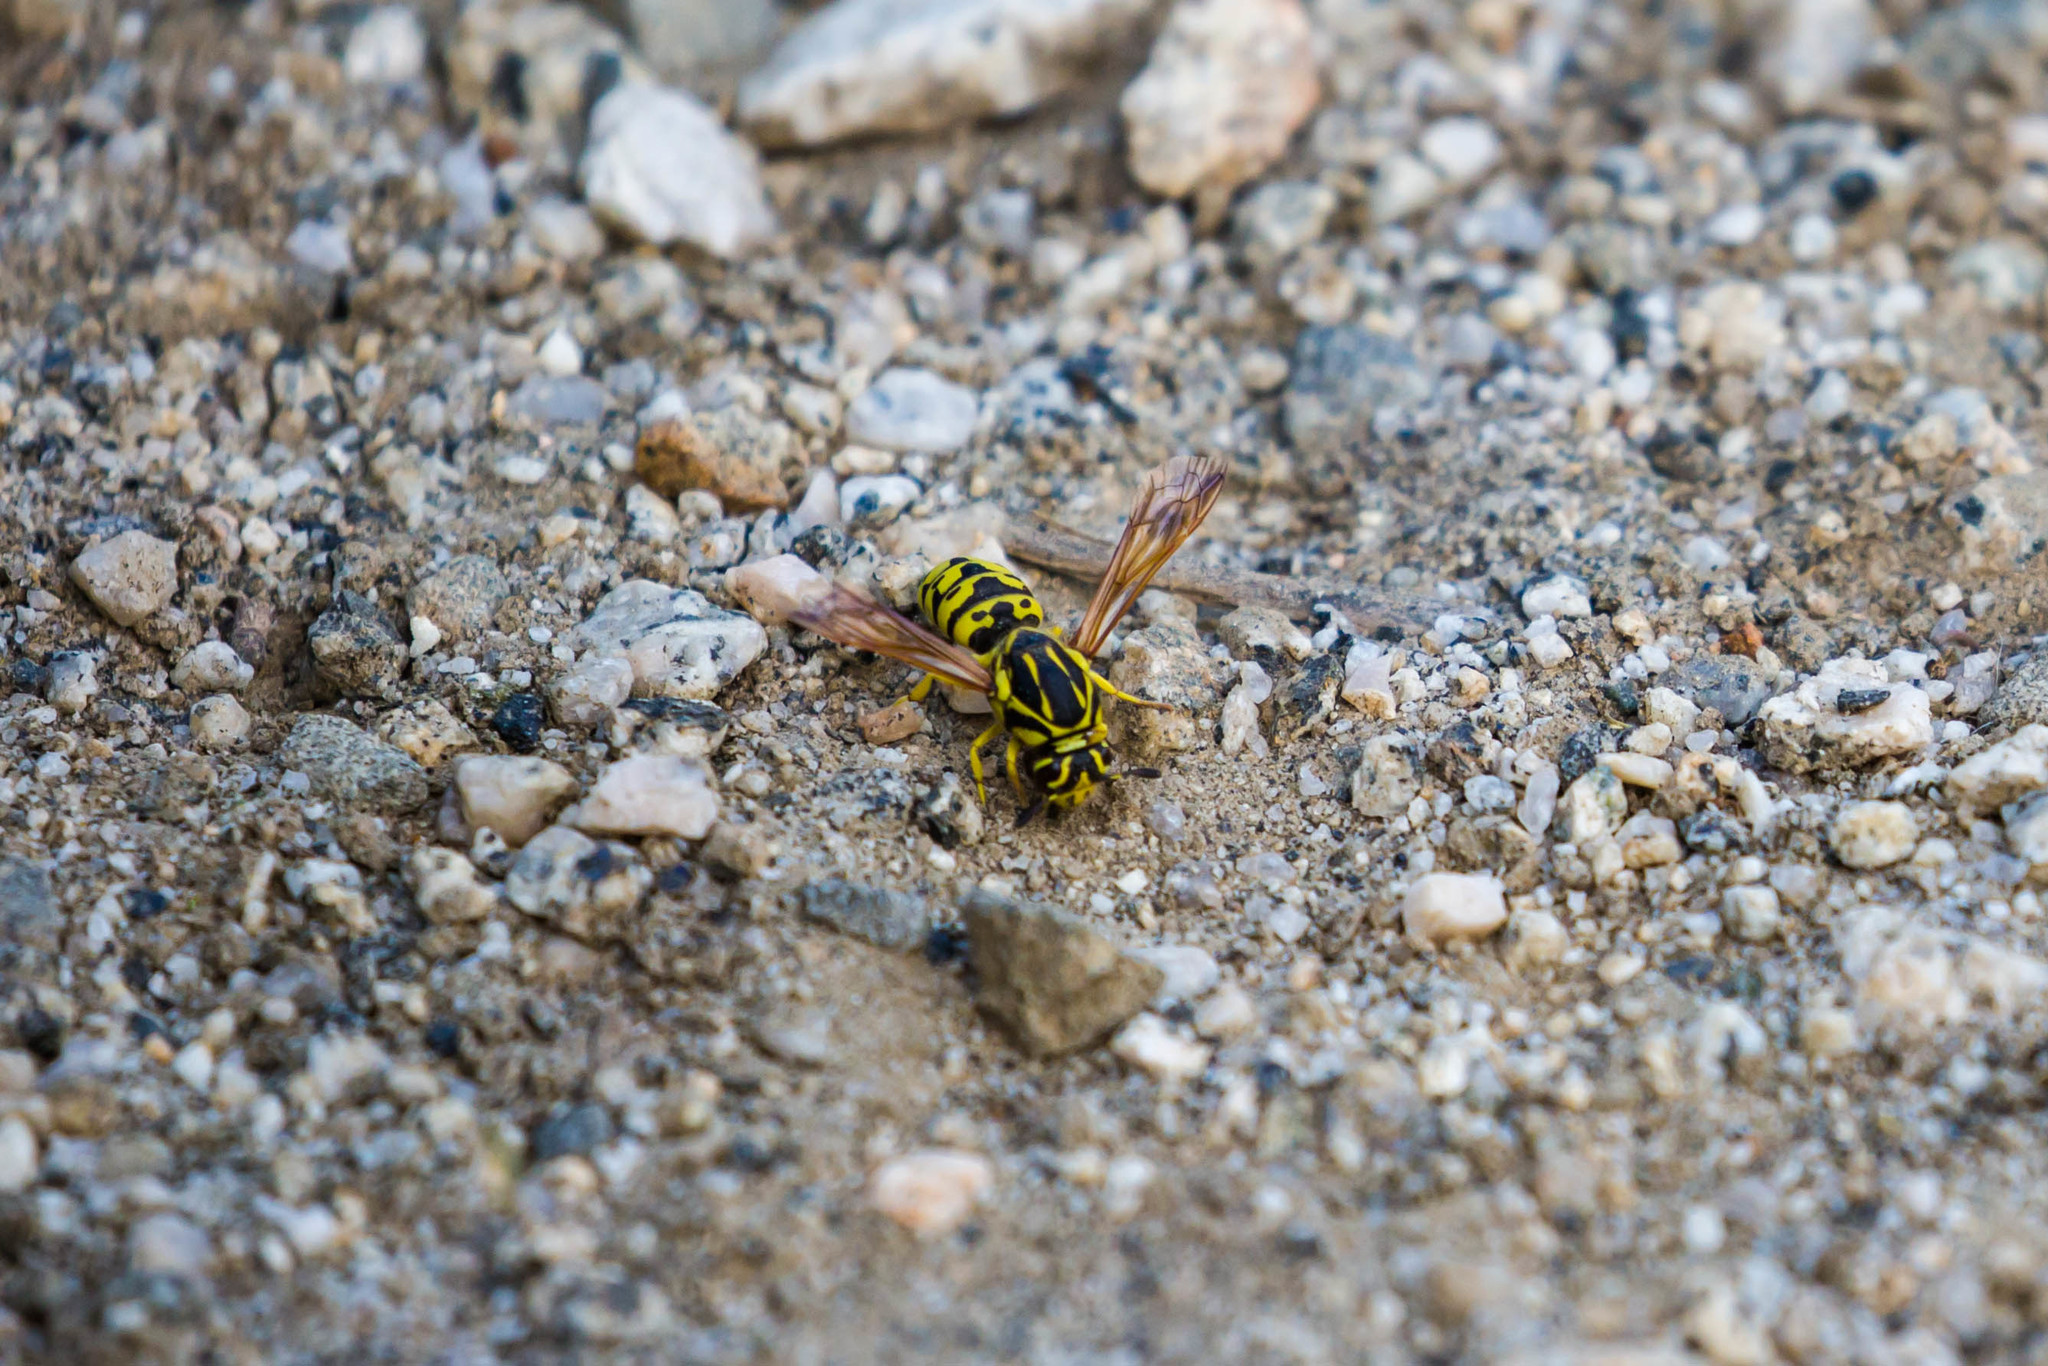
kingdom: Animalia
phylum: Arthropoda
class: Insecta
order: Hymenoptera
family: Masaridae
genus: Pseudomasaris
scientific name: Pseudomasaris wheeleri
